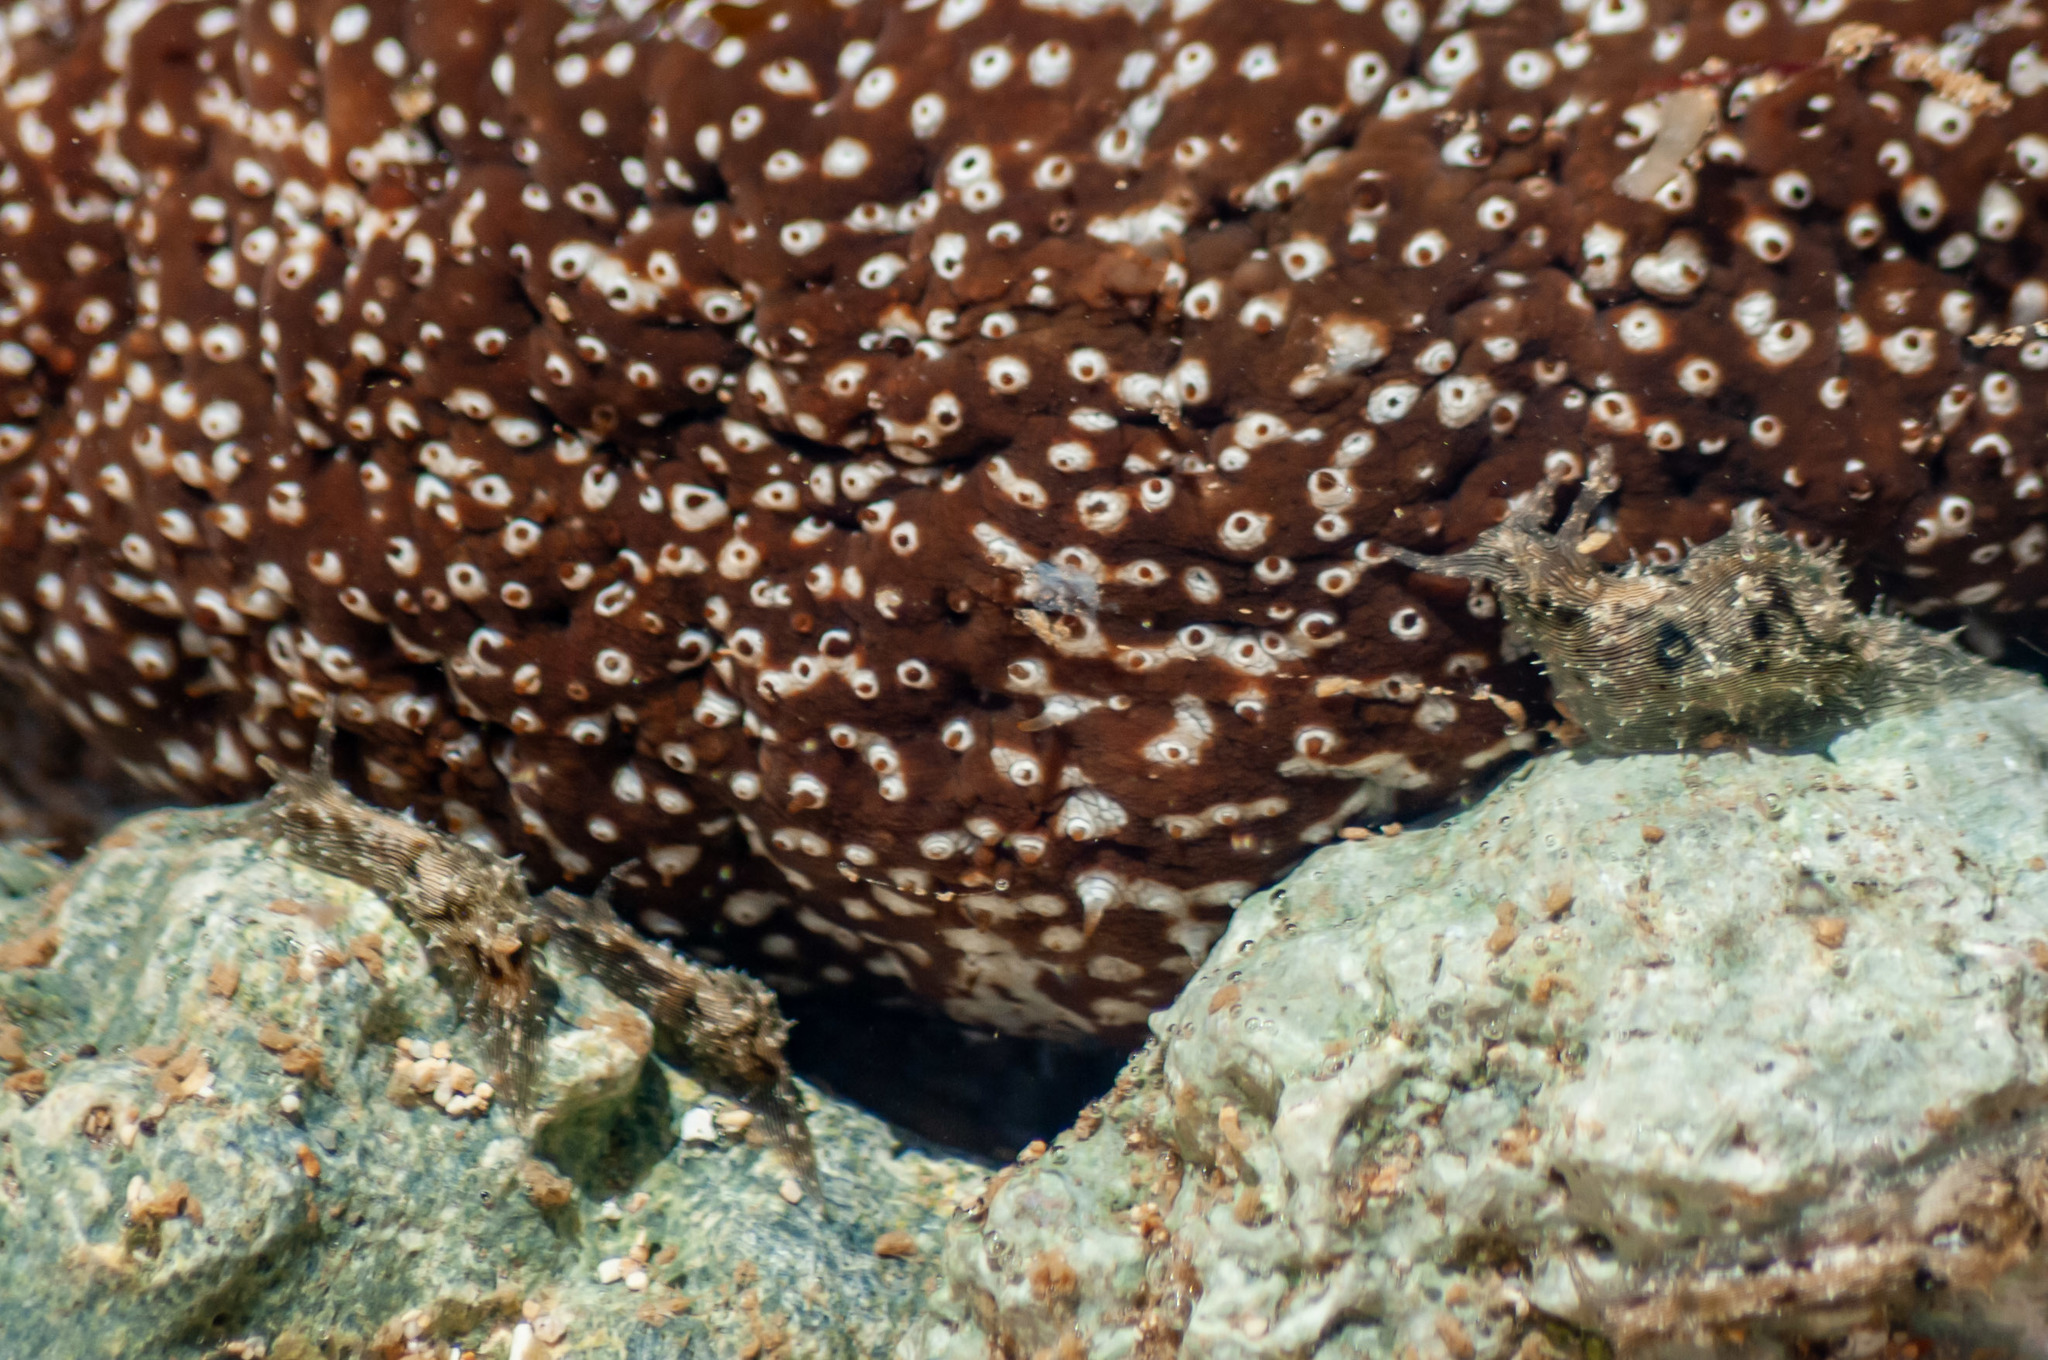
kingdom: Animalia
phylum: Mollusca
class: Gastropoda
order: Aplysiida
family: Aplysiidae
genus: Stylocheilus
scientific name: Stylocheilus striatus
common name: Striated seahare
